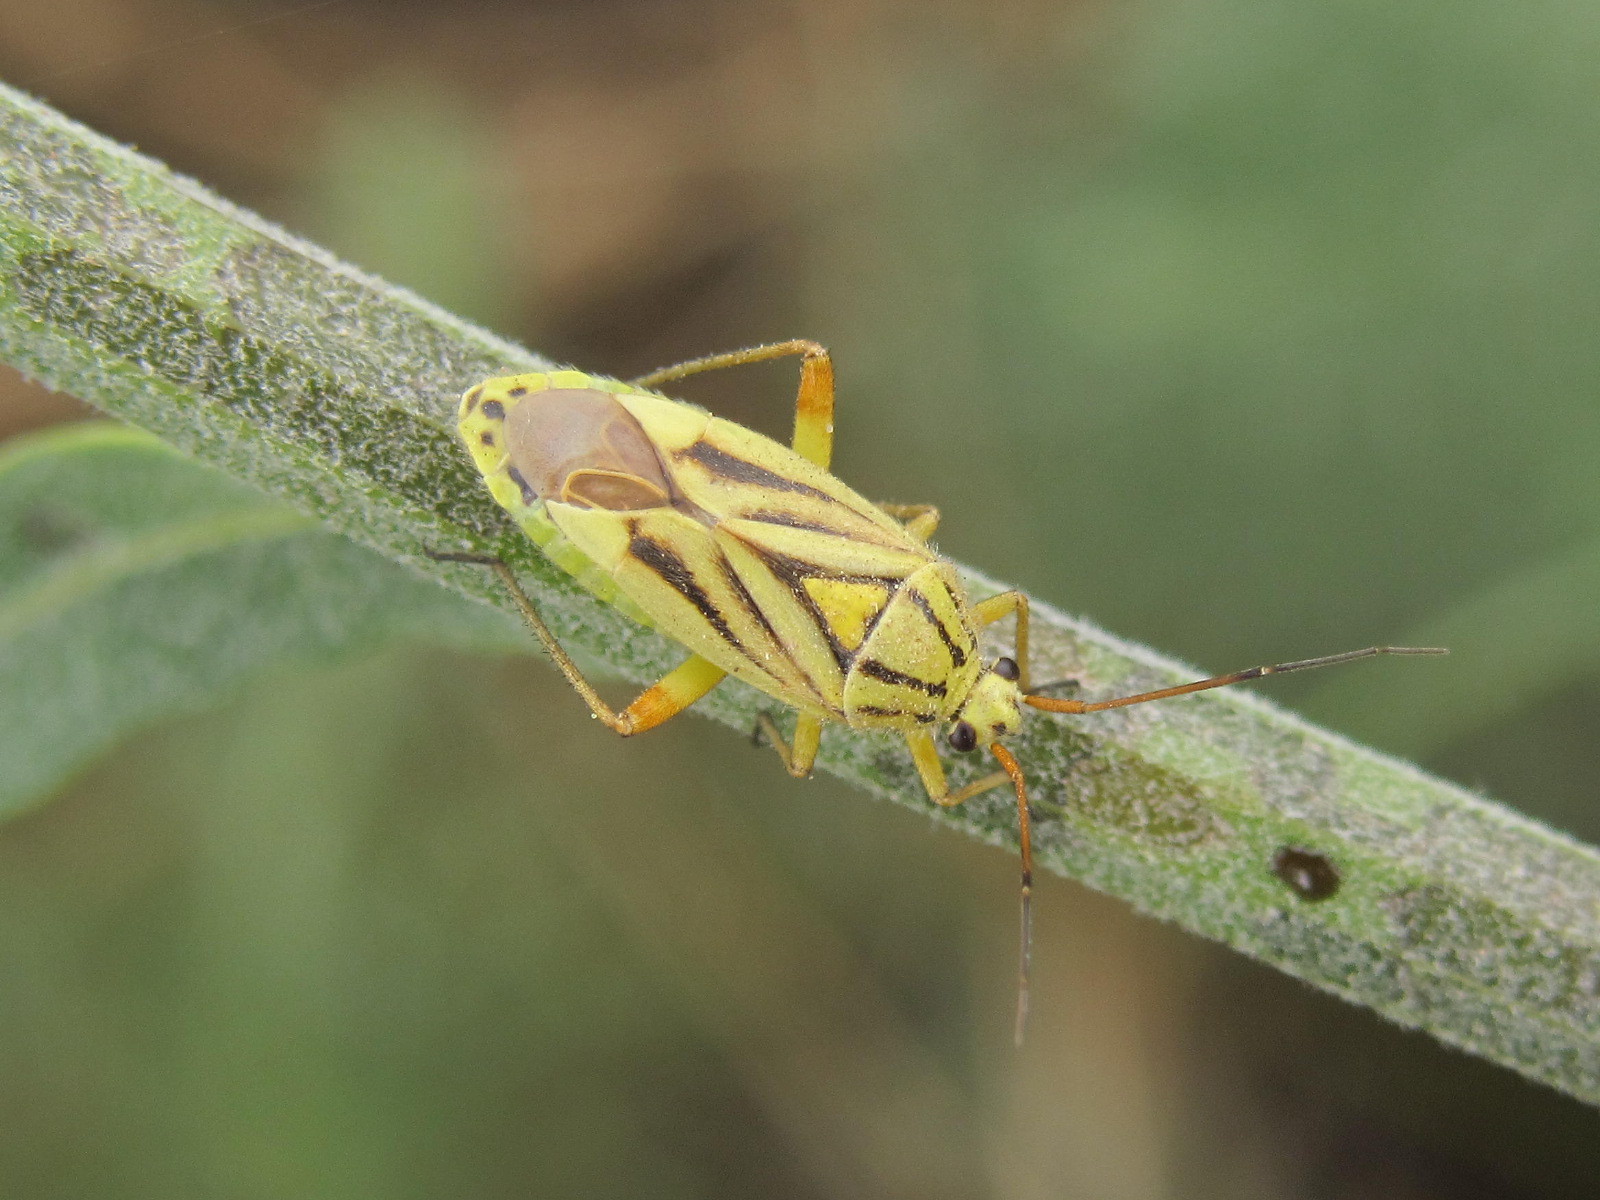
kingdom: Animalia
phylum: Arthropoda
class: Insecta
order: Hemiptera
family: Miridae
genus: Brachycoleus
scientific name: Brachycoleus decolor
